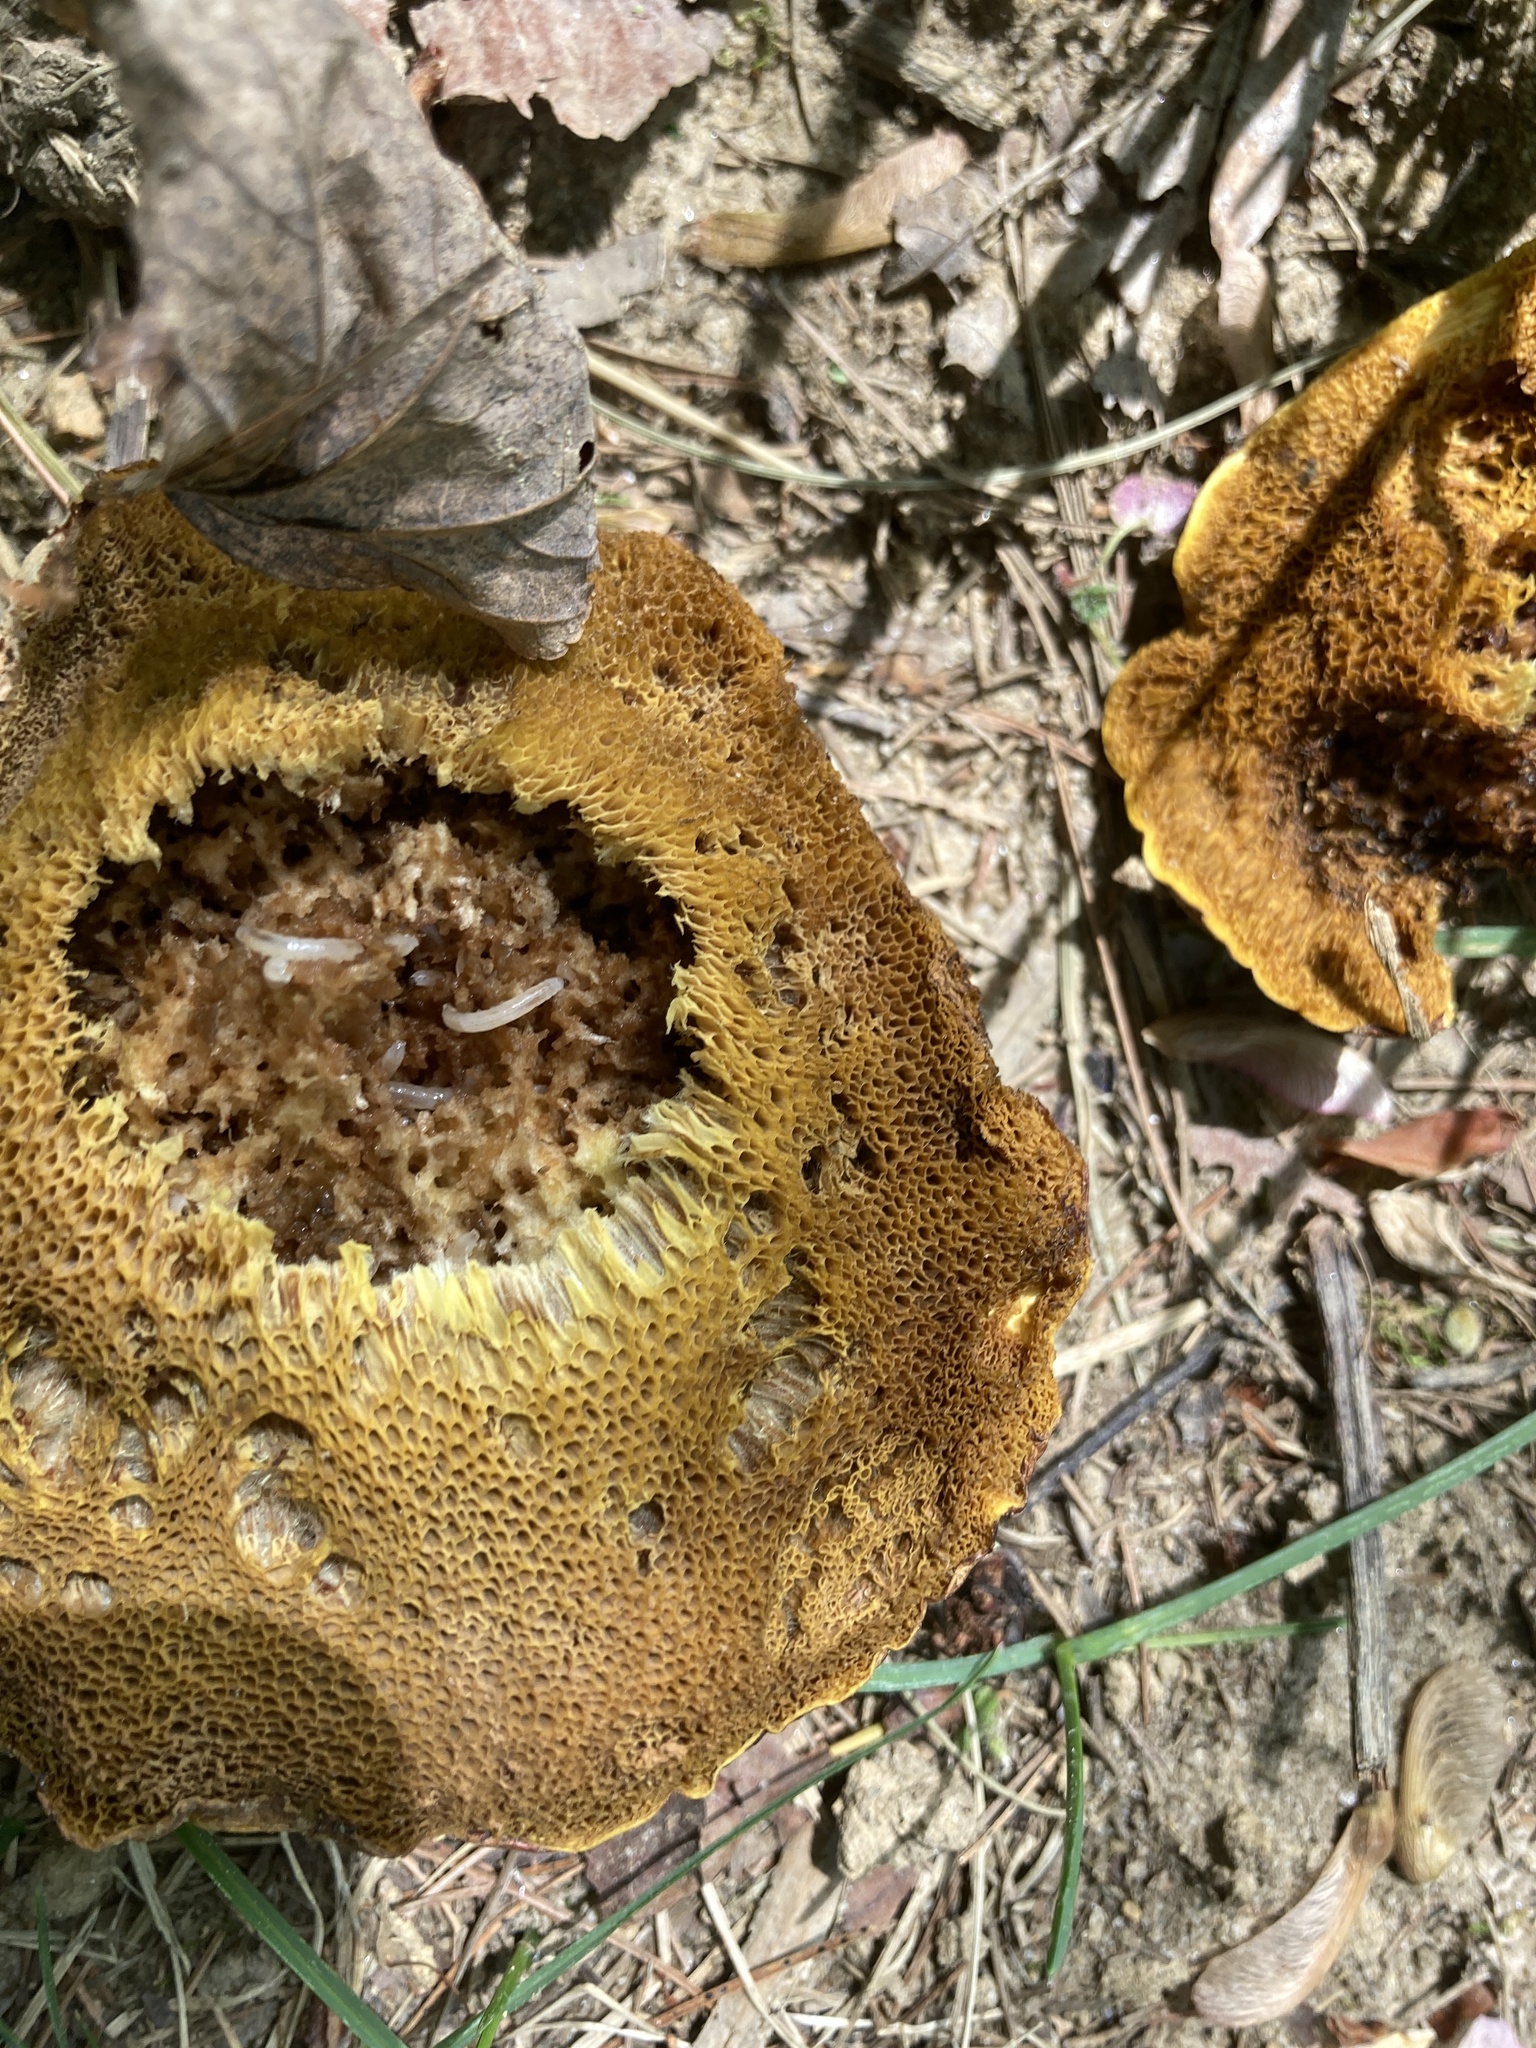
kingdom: Fungi
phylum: Basidiomycota
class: Agaricomycetes
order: Boletales
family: Boletinellaceae
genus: Boletinellus
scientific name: Boletinellus merulioides
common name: Ash tree bolete
